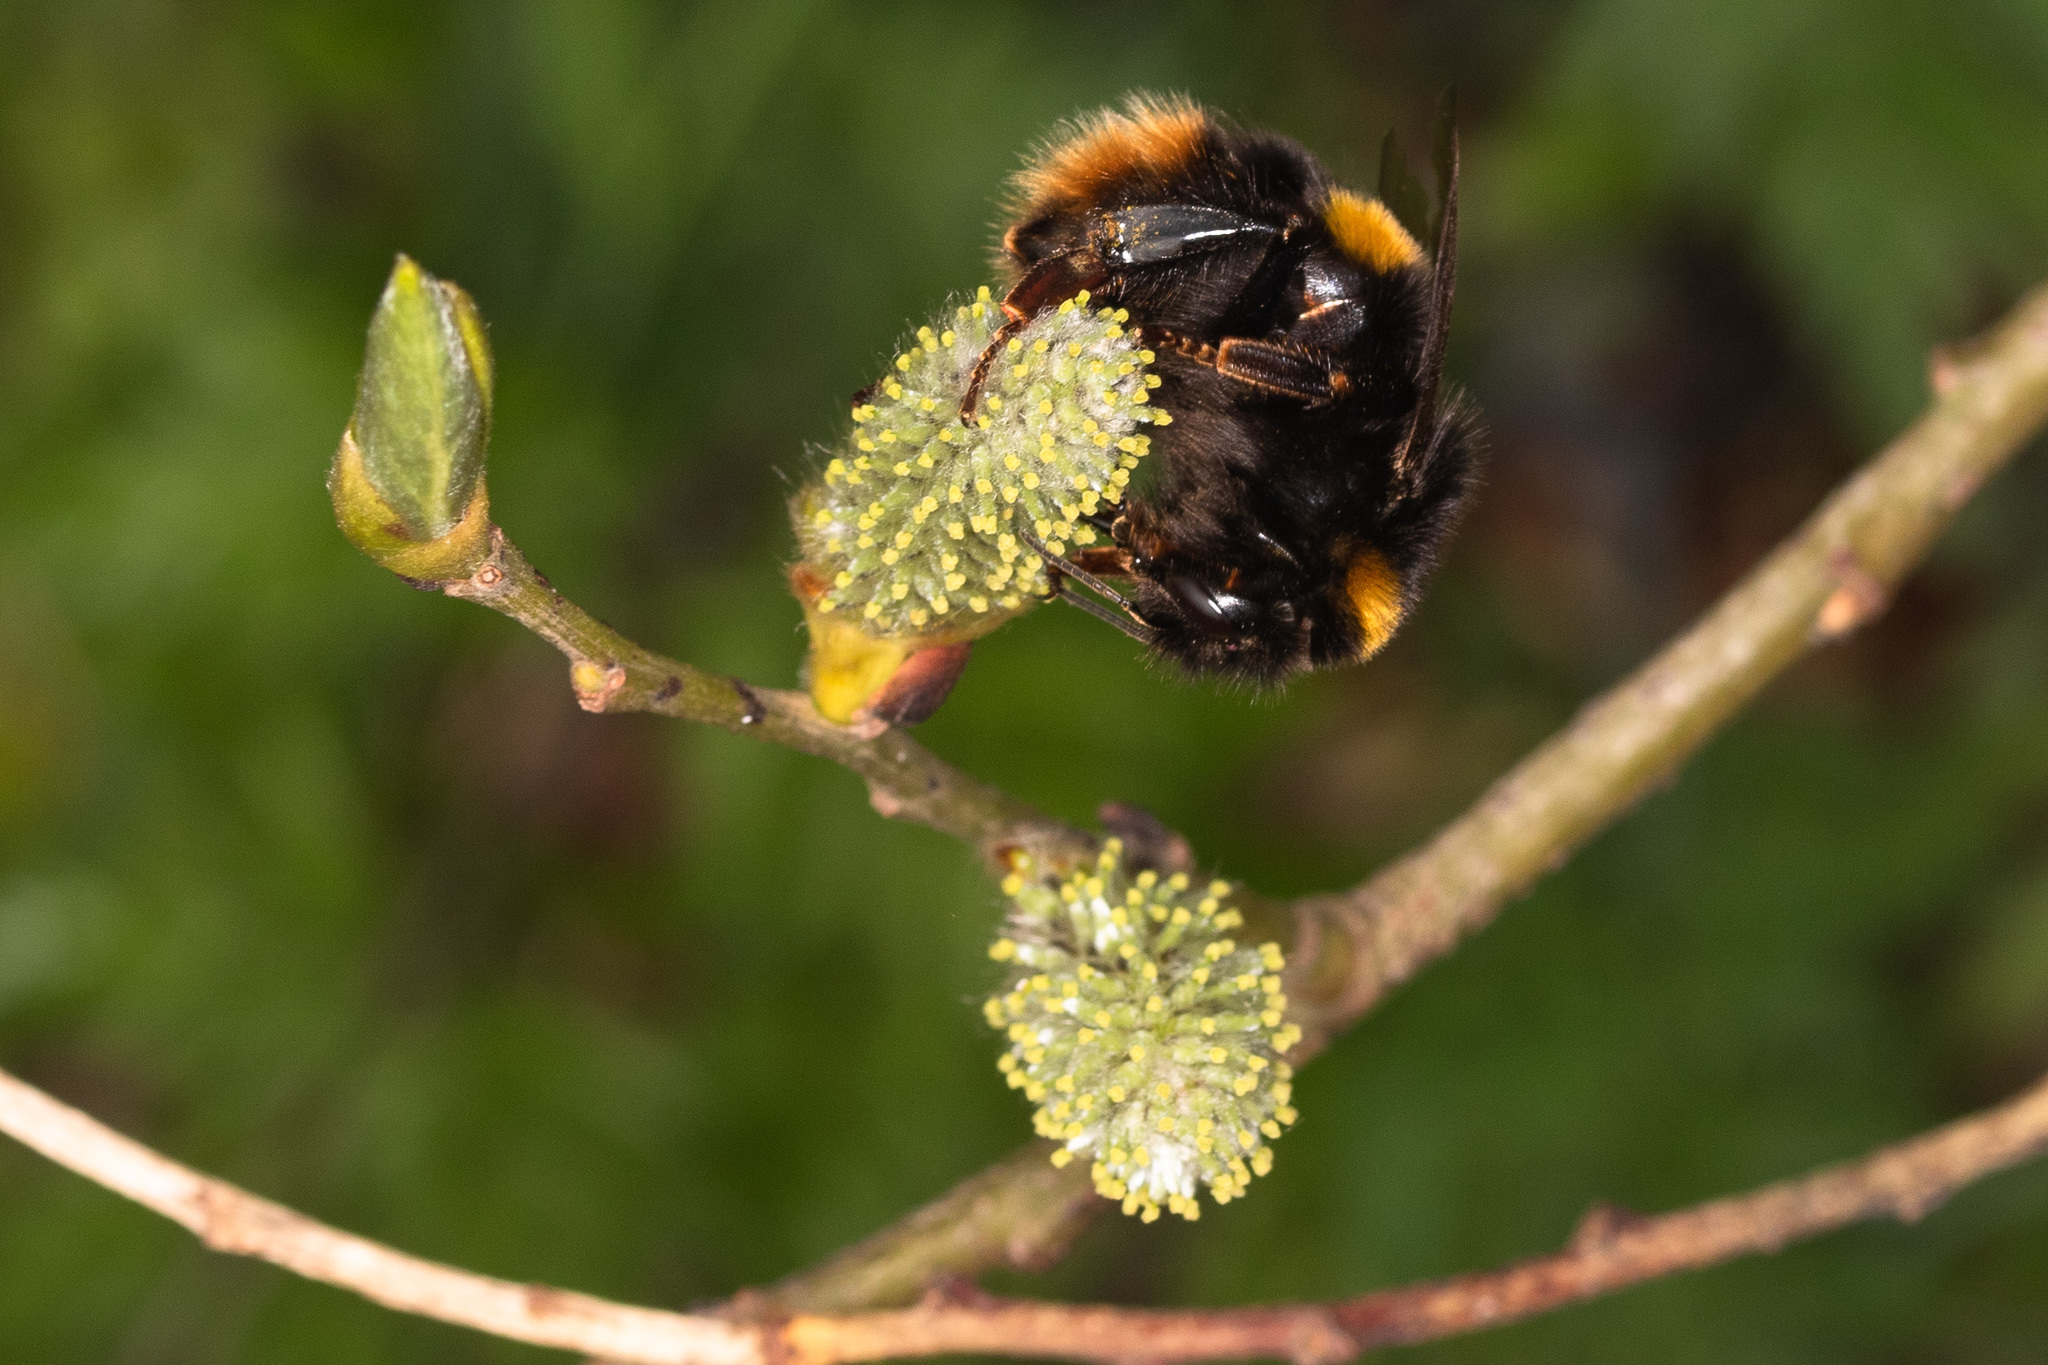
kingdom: Animalia
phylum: Arthropoda
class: Insecta
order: Hymenoptera
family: Apidae
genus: Bombus
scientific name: Bombus terrestris
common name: Buff-tailed bumblebee
